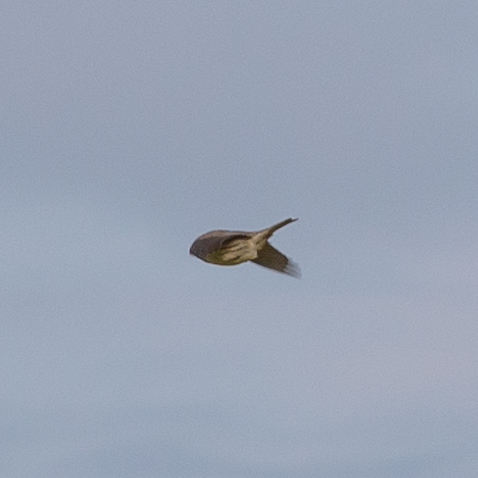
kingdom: Animalia
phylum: Chordata
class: Aves
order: Passeriformes
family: Emberizidae
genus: Emberiza
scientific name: Emberiza calandra
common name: Corn bunting
